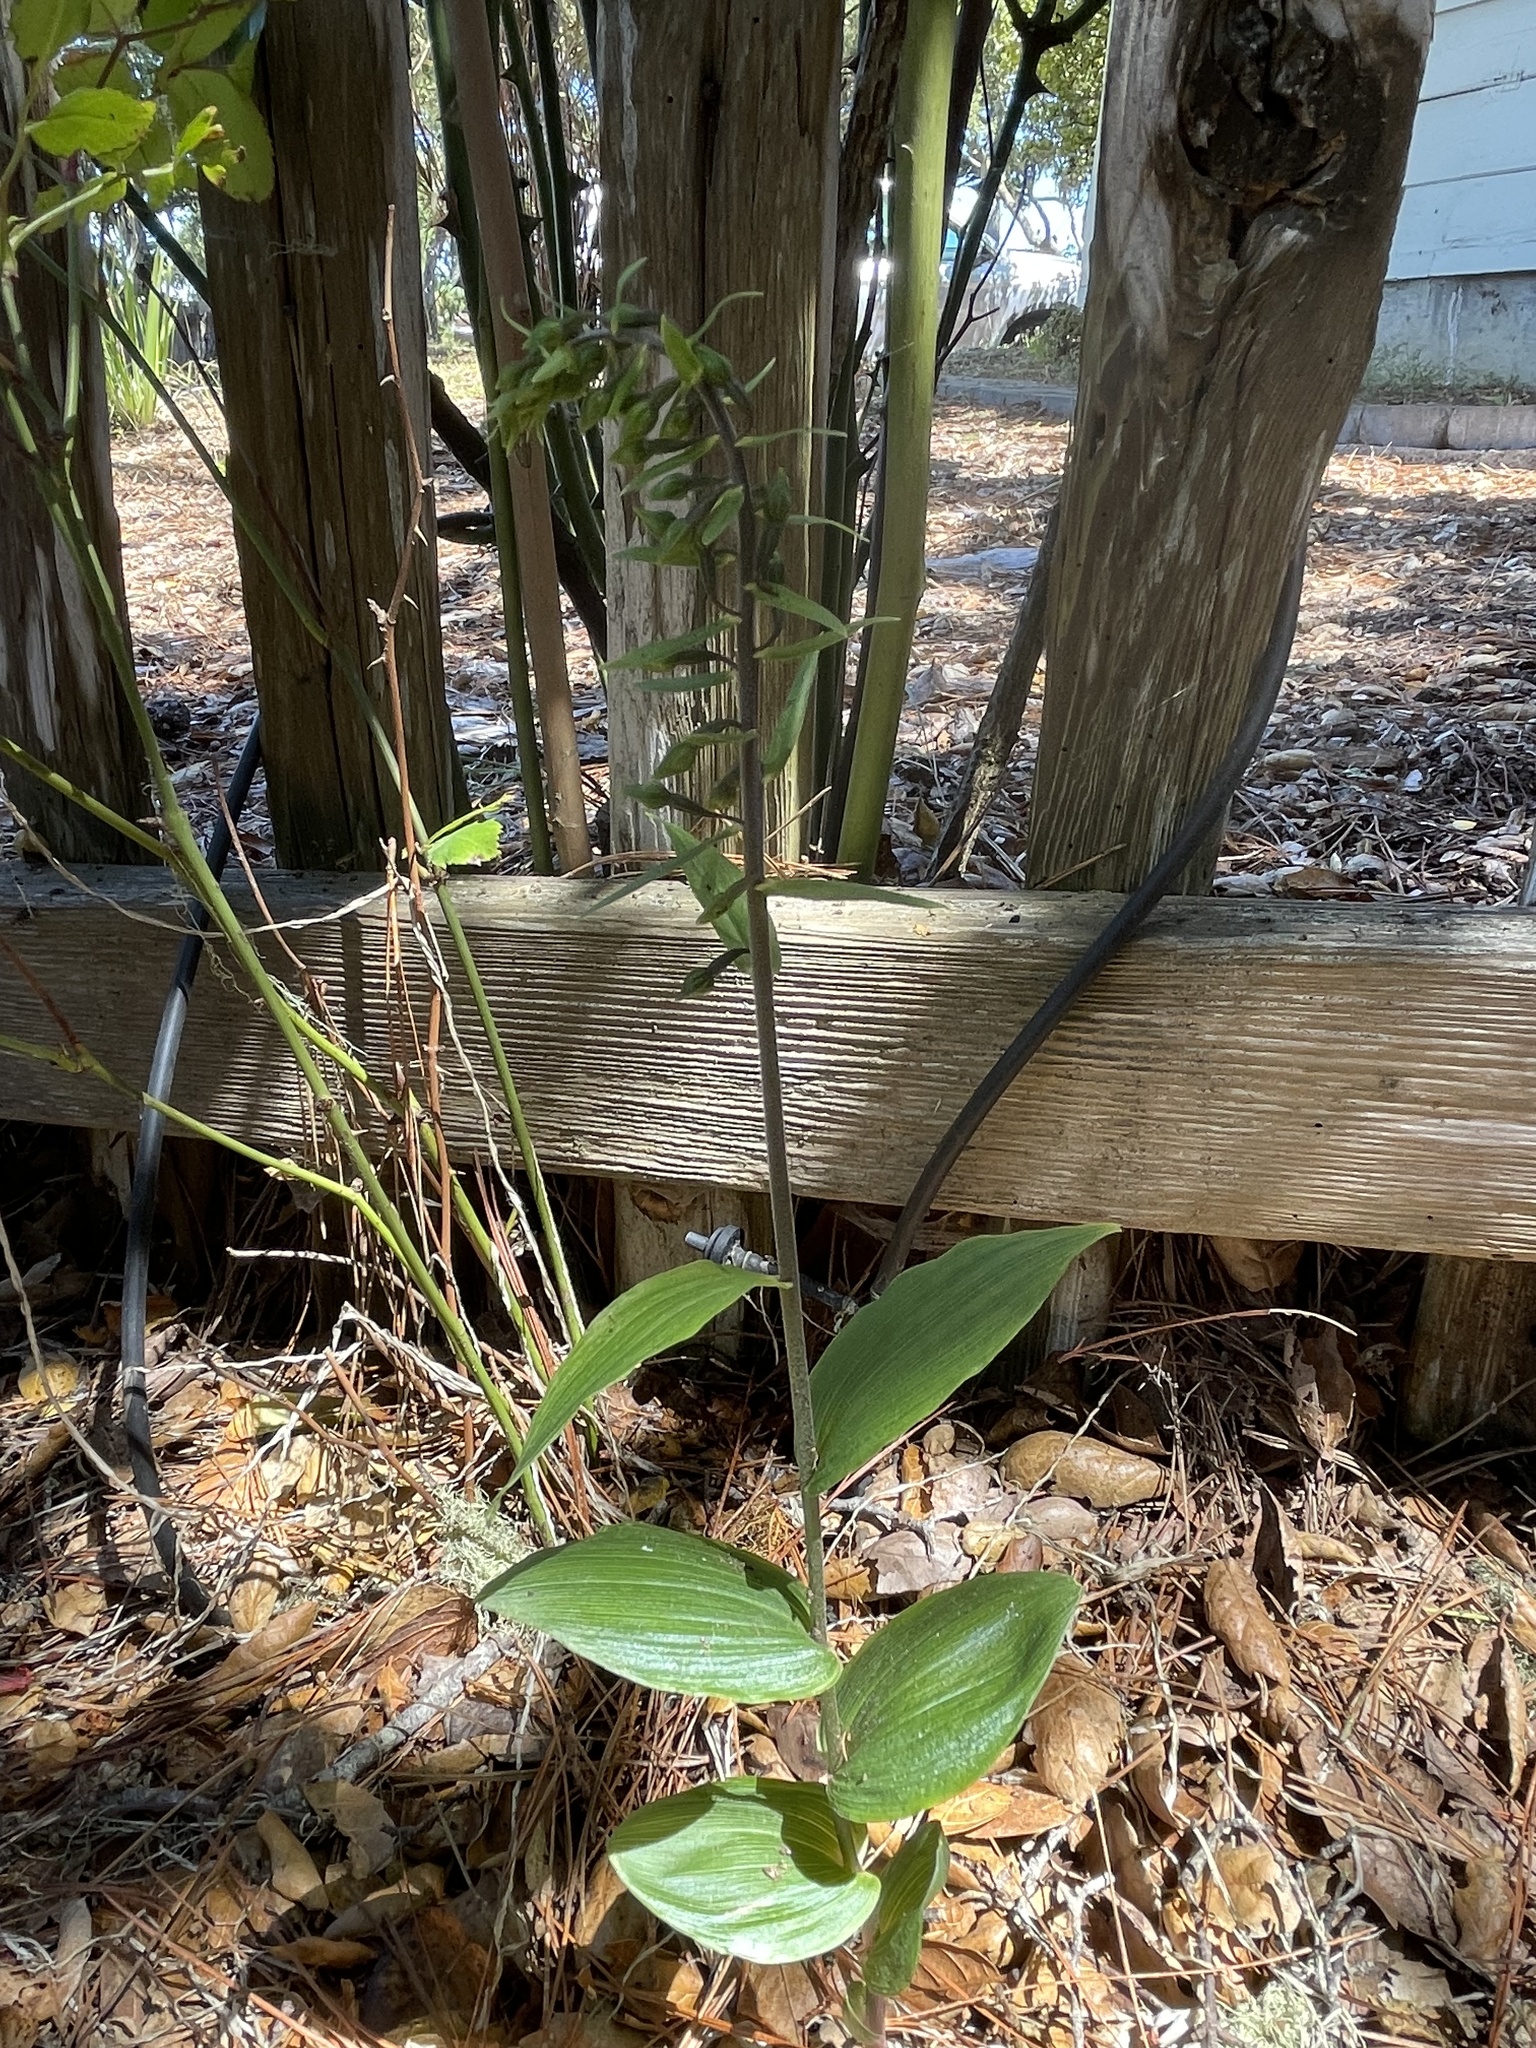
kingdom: Plantae
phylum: Tracheophyta
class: Liliopsida
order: Asparagales
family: Orchidaceae
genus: Epipactis
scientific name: Epipactis helleborine
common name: Broad-leaved helleborine
